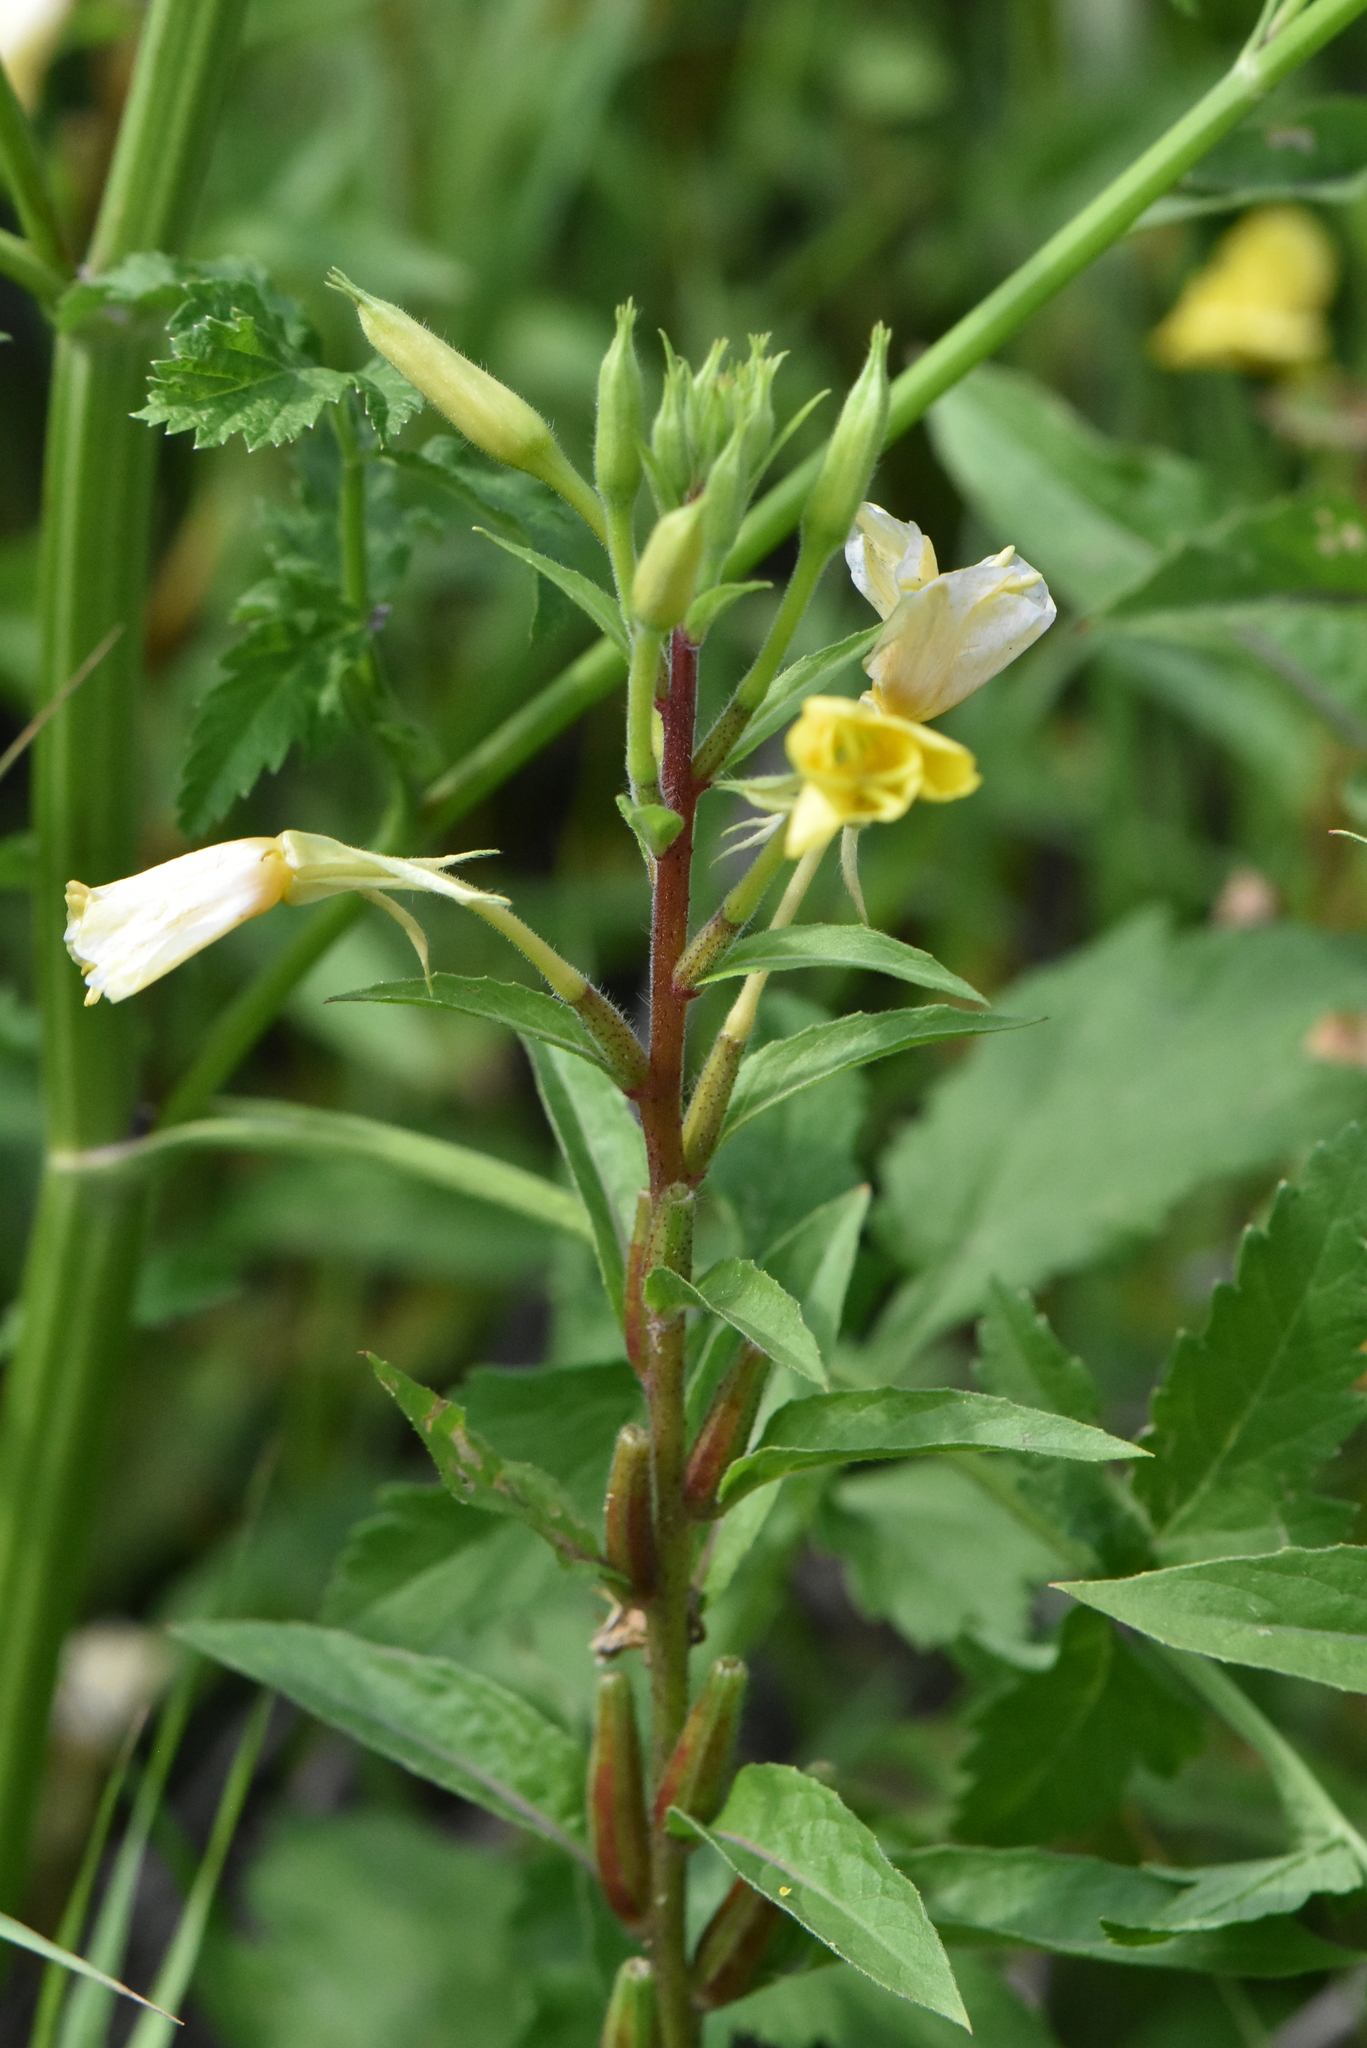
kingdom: Plantae
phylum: Tracheophyta
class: Magnoliopsida
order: Myrtales
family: Onagraceae
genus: Oenothera
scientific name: Oenothera rubricaulis
